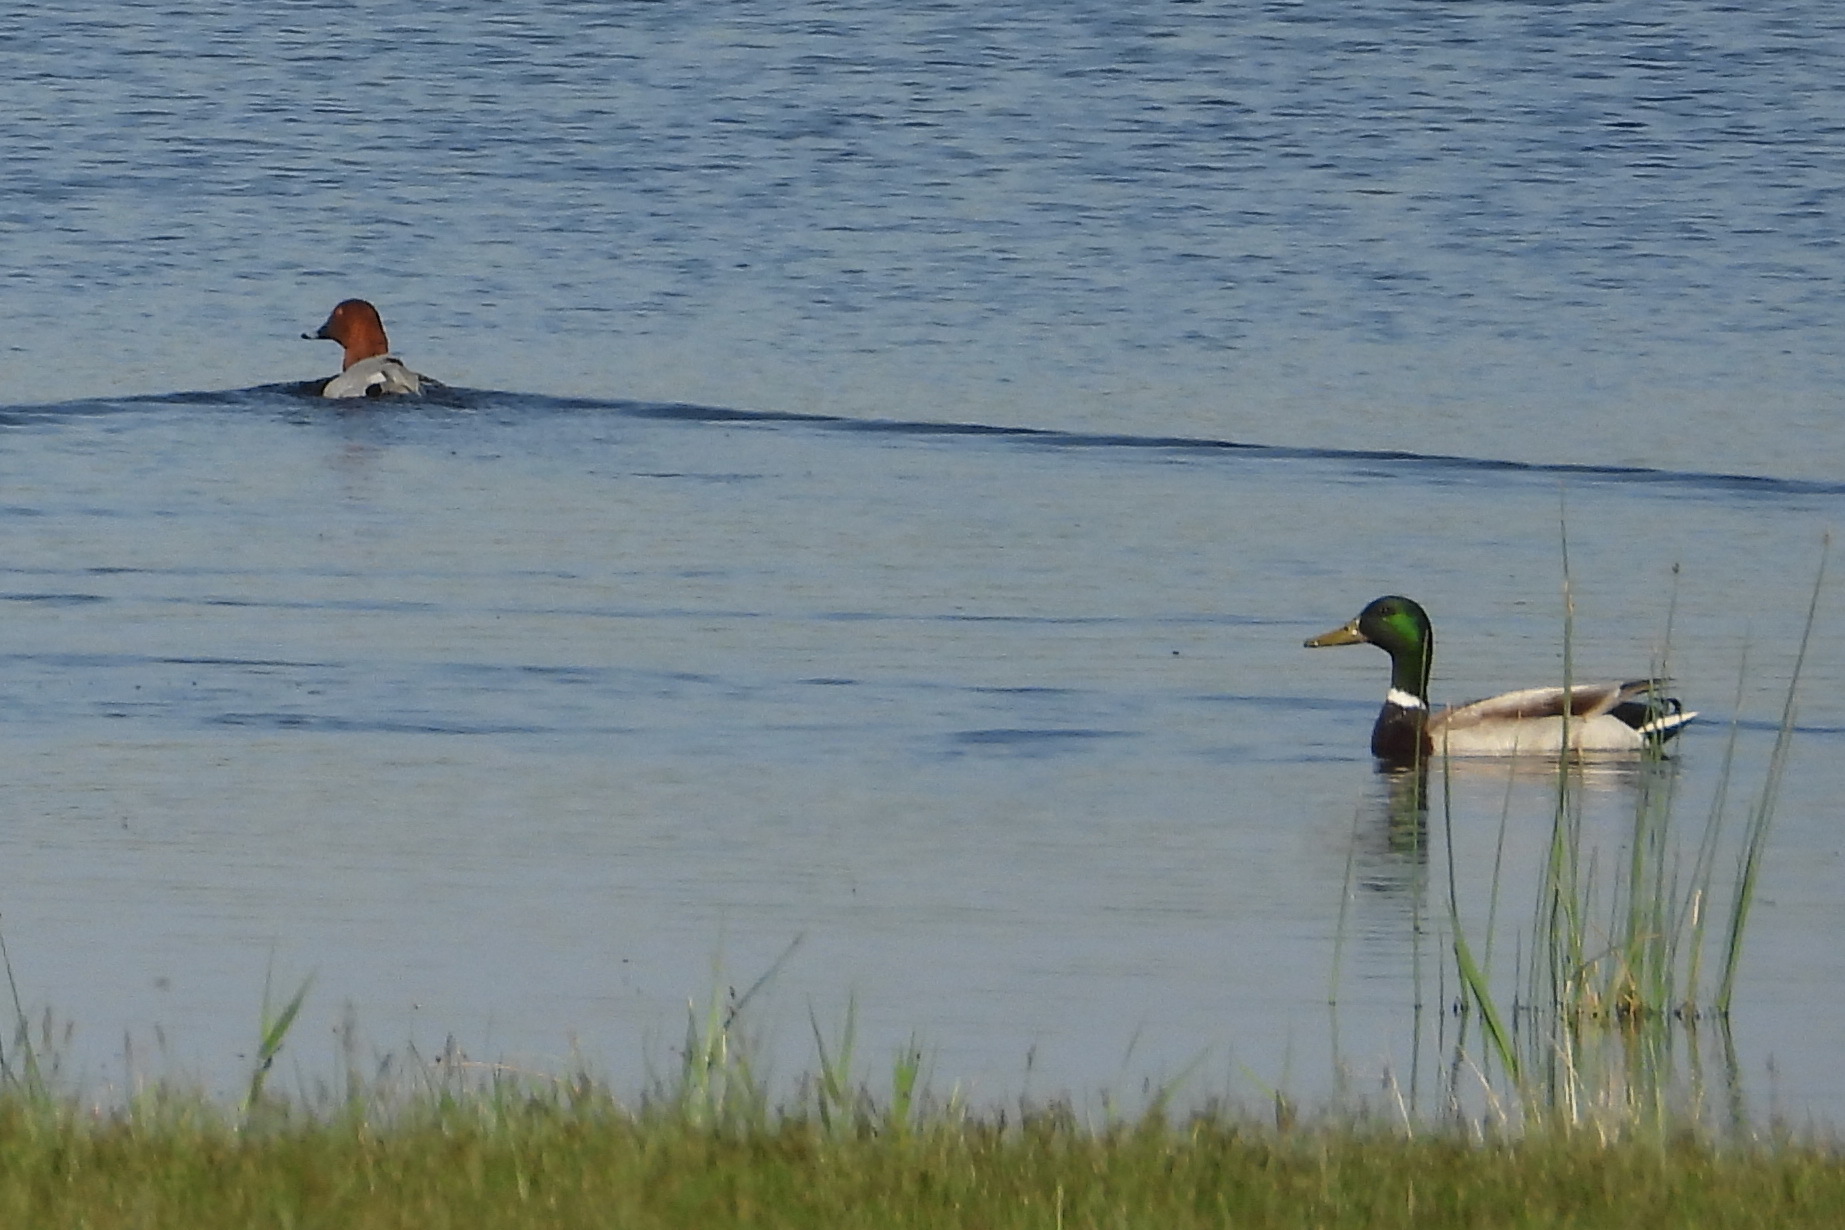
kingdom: Animalia
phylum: Chordata
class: Aves
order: Anseriformes
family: Anatidae
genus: Anas
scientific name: Anas platyrhynchos
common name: Mallard
